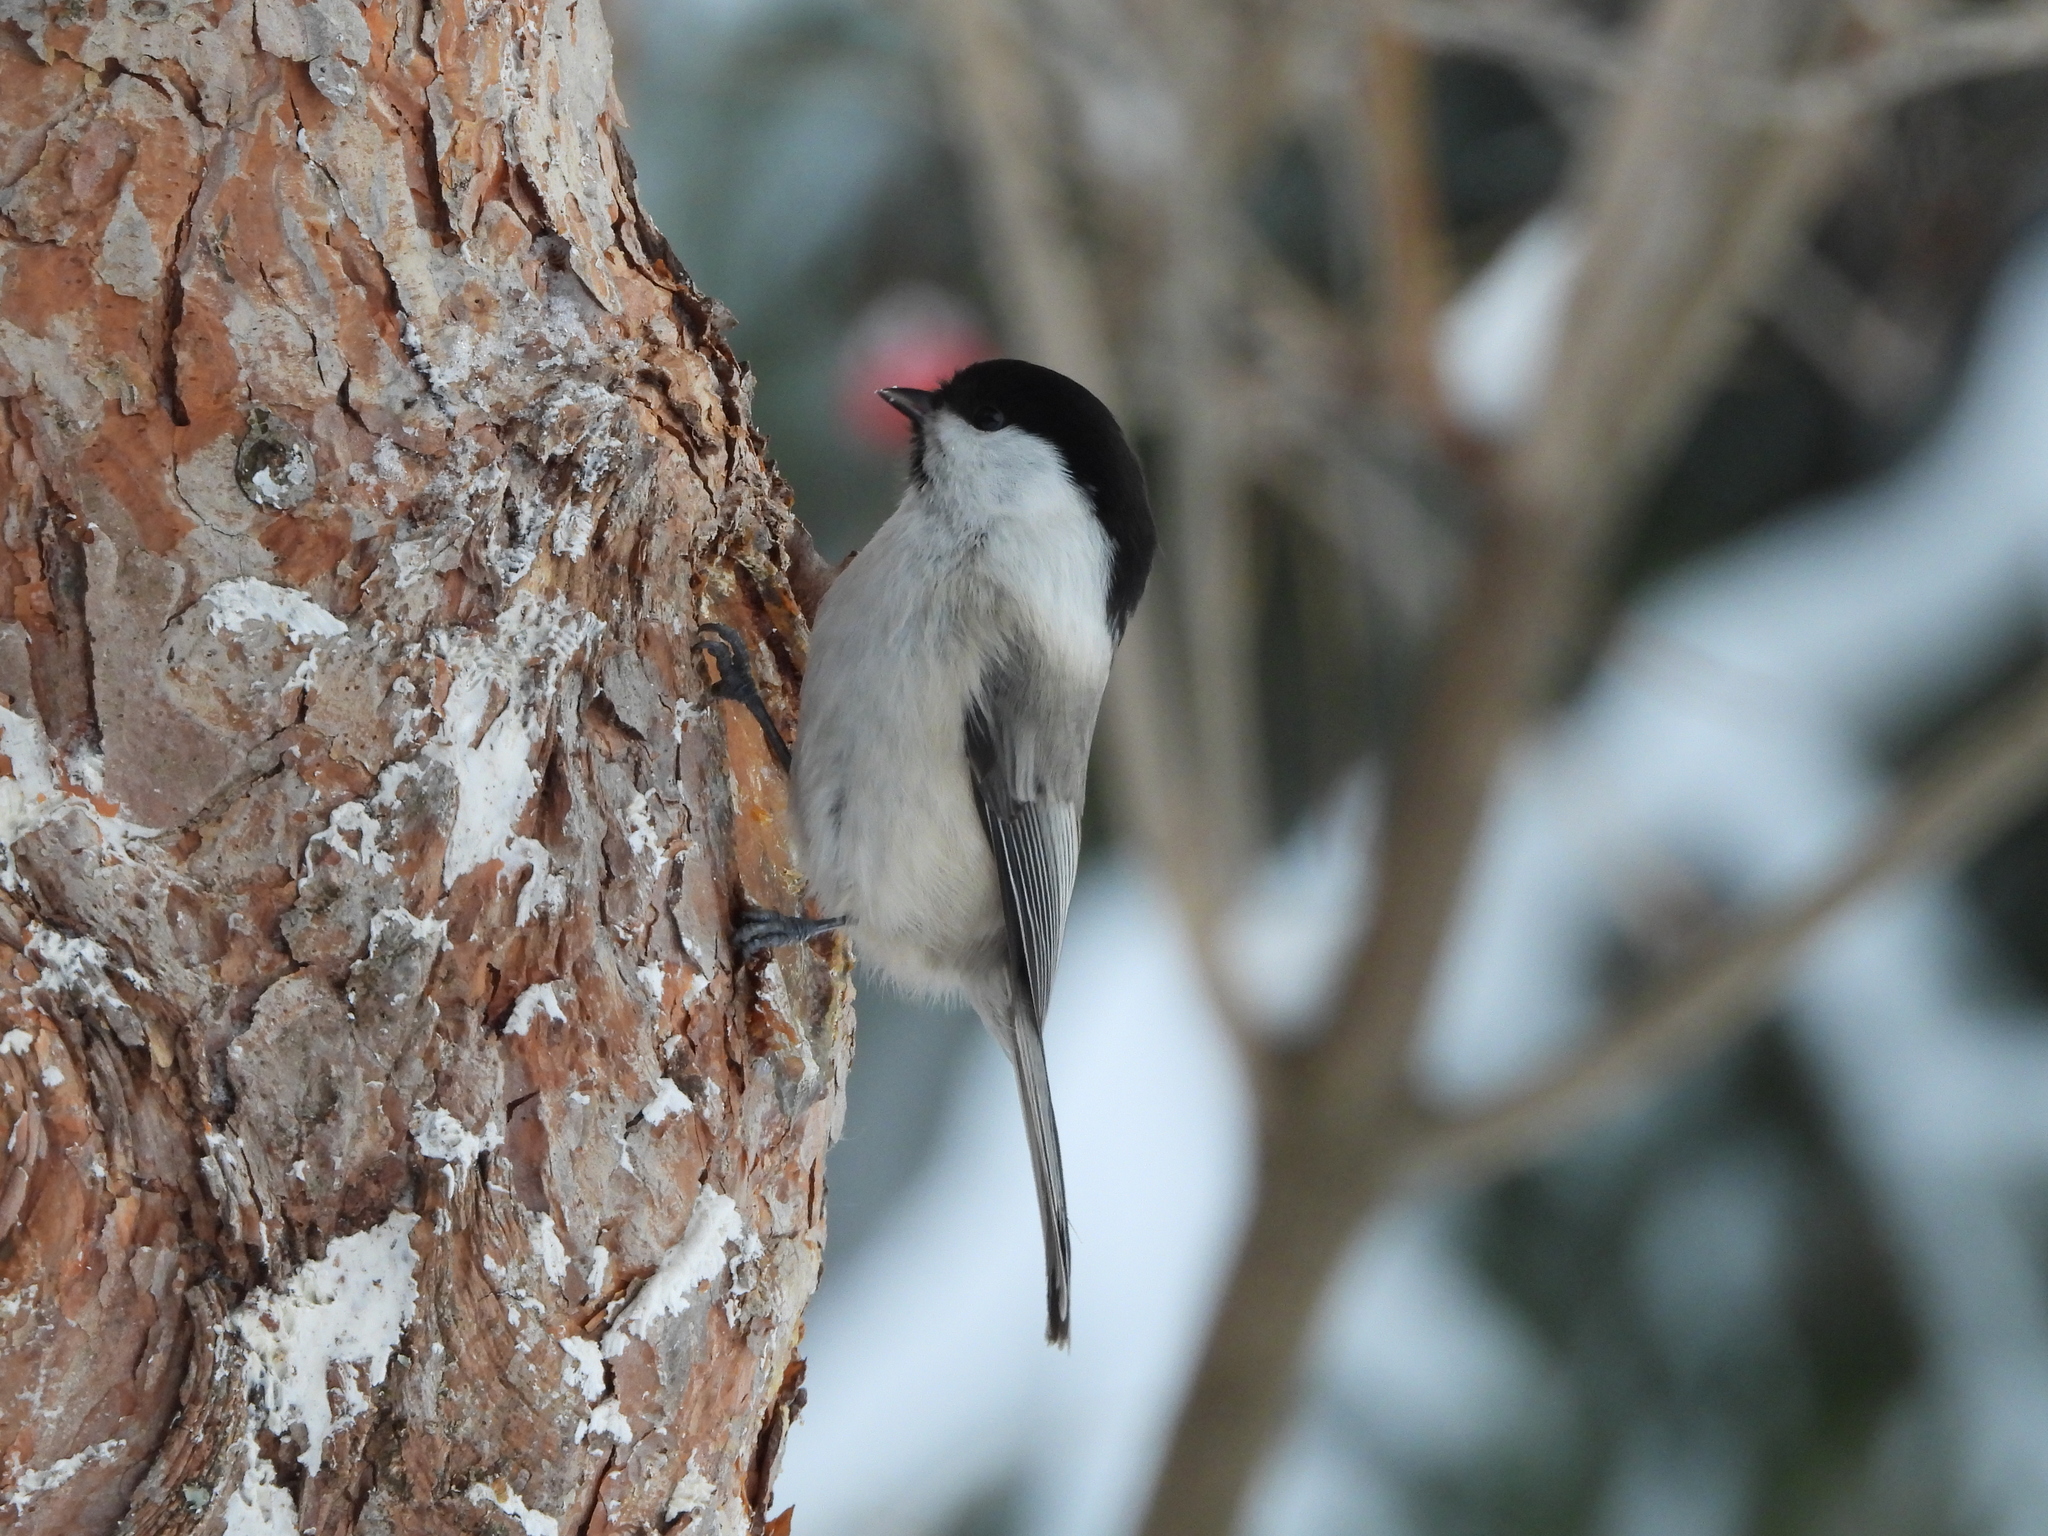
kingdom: Animalia
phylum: Chordata
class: Aves
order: Passeriformes
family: Paridae
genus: Poecile
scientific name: Poecile montanus
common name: Willow tit
